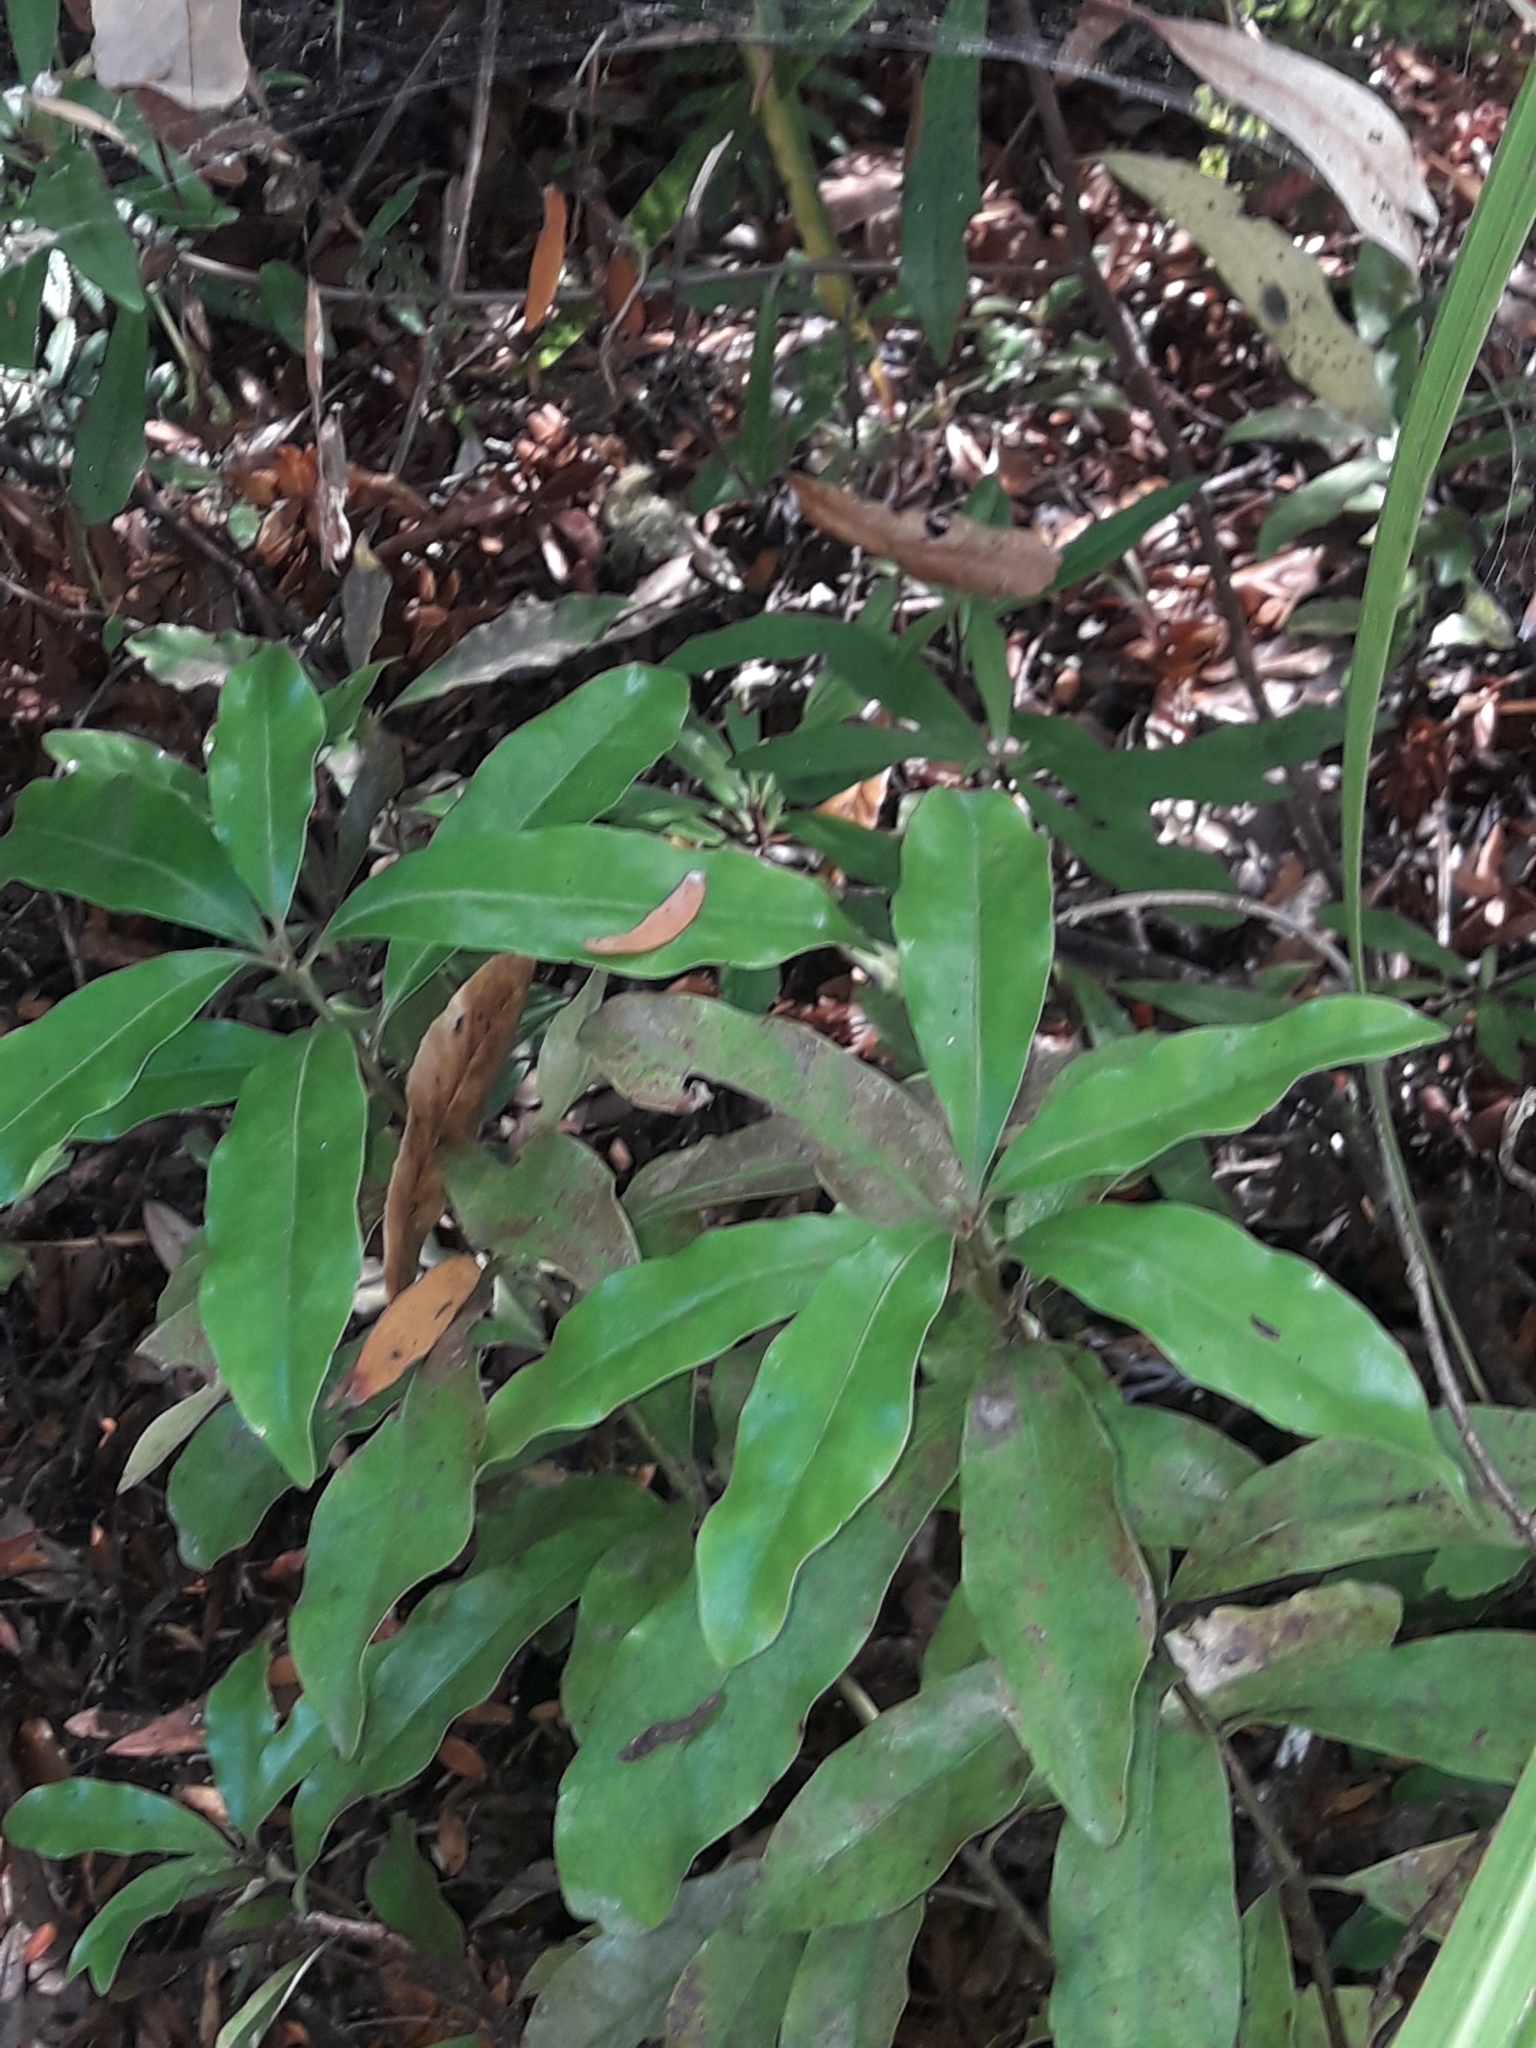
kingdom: Plantae
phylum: Tracheophyta
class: Magnoliopsida
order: Asterales
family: Alseuosmiaceae
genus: Alseuosmia
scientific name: Alseuosmia macrophylla
